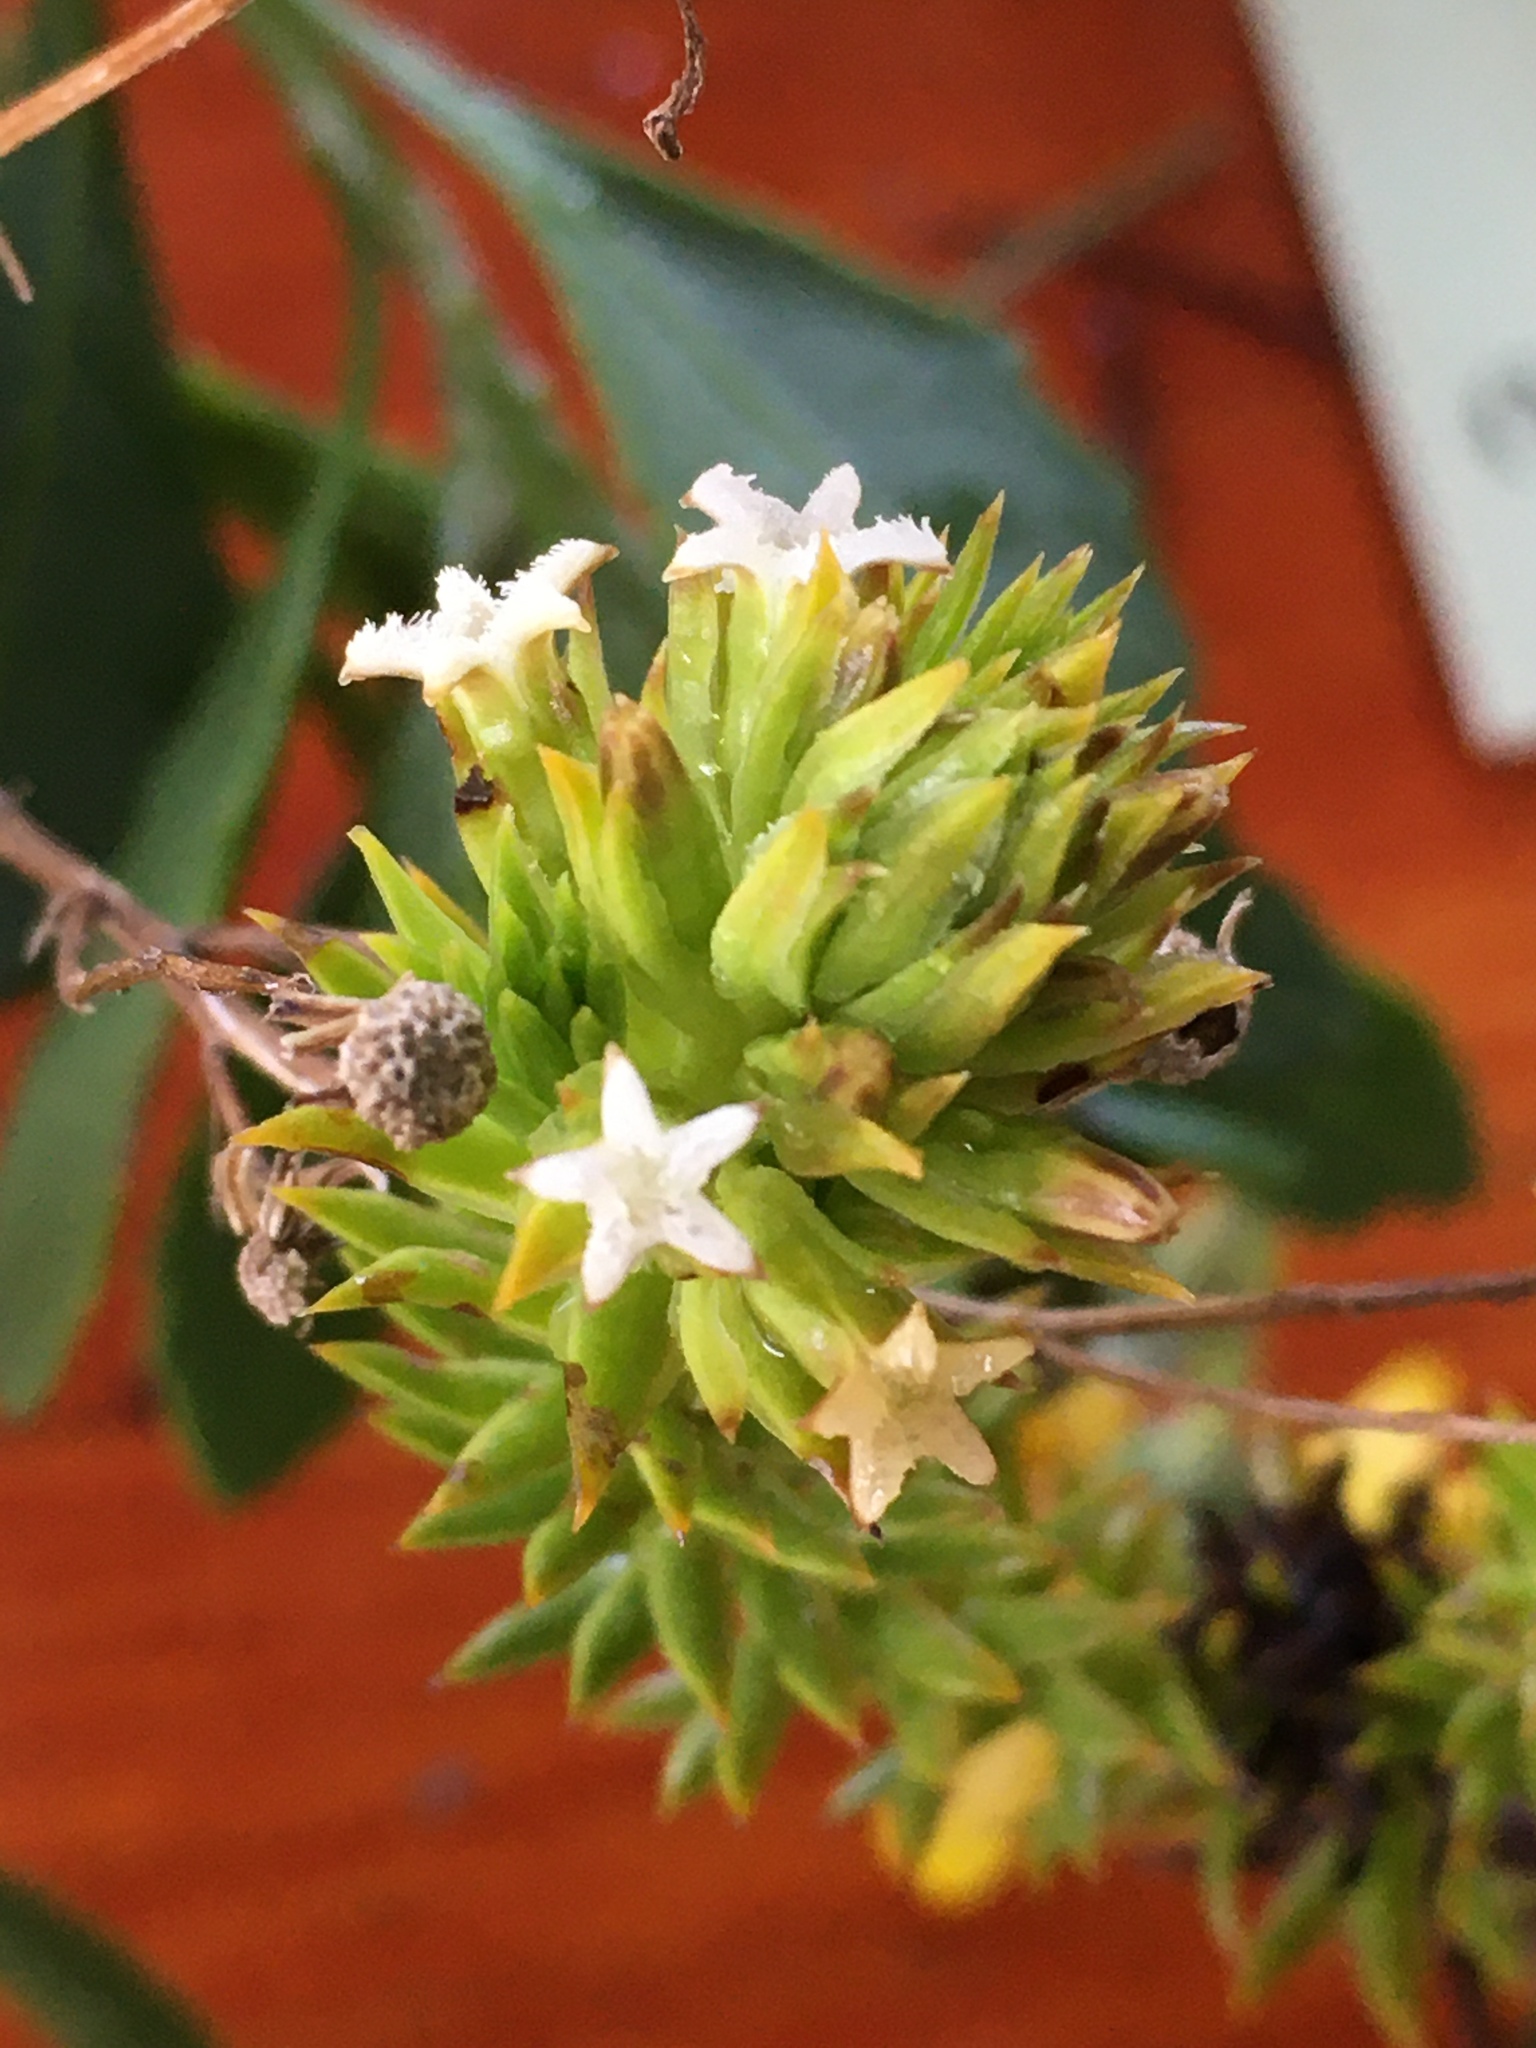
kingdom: Plantae
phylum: Tracheophyta
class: Magnoliopsida
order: Santalales
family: Thesiaceae
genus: Thesium
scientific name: Thesium viridifolium
